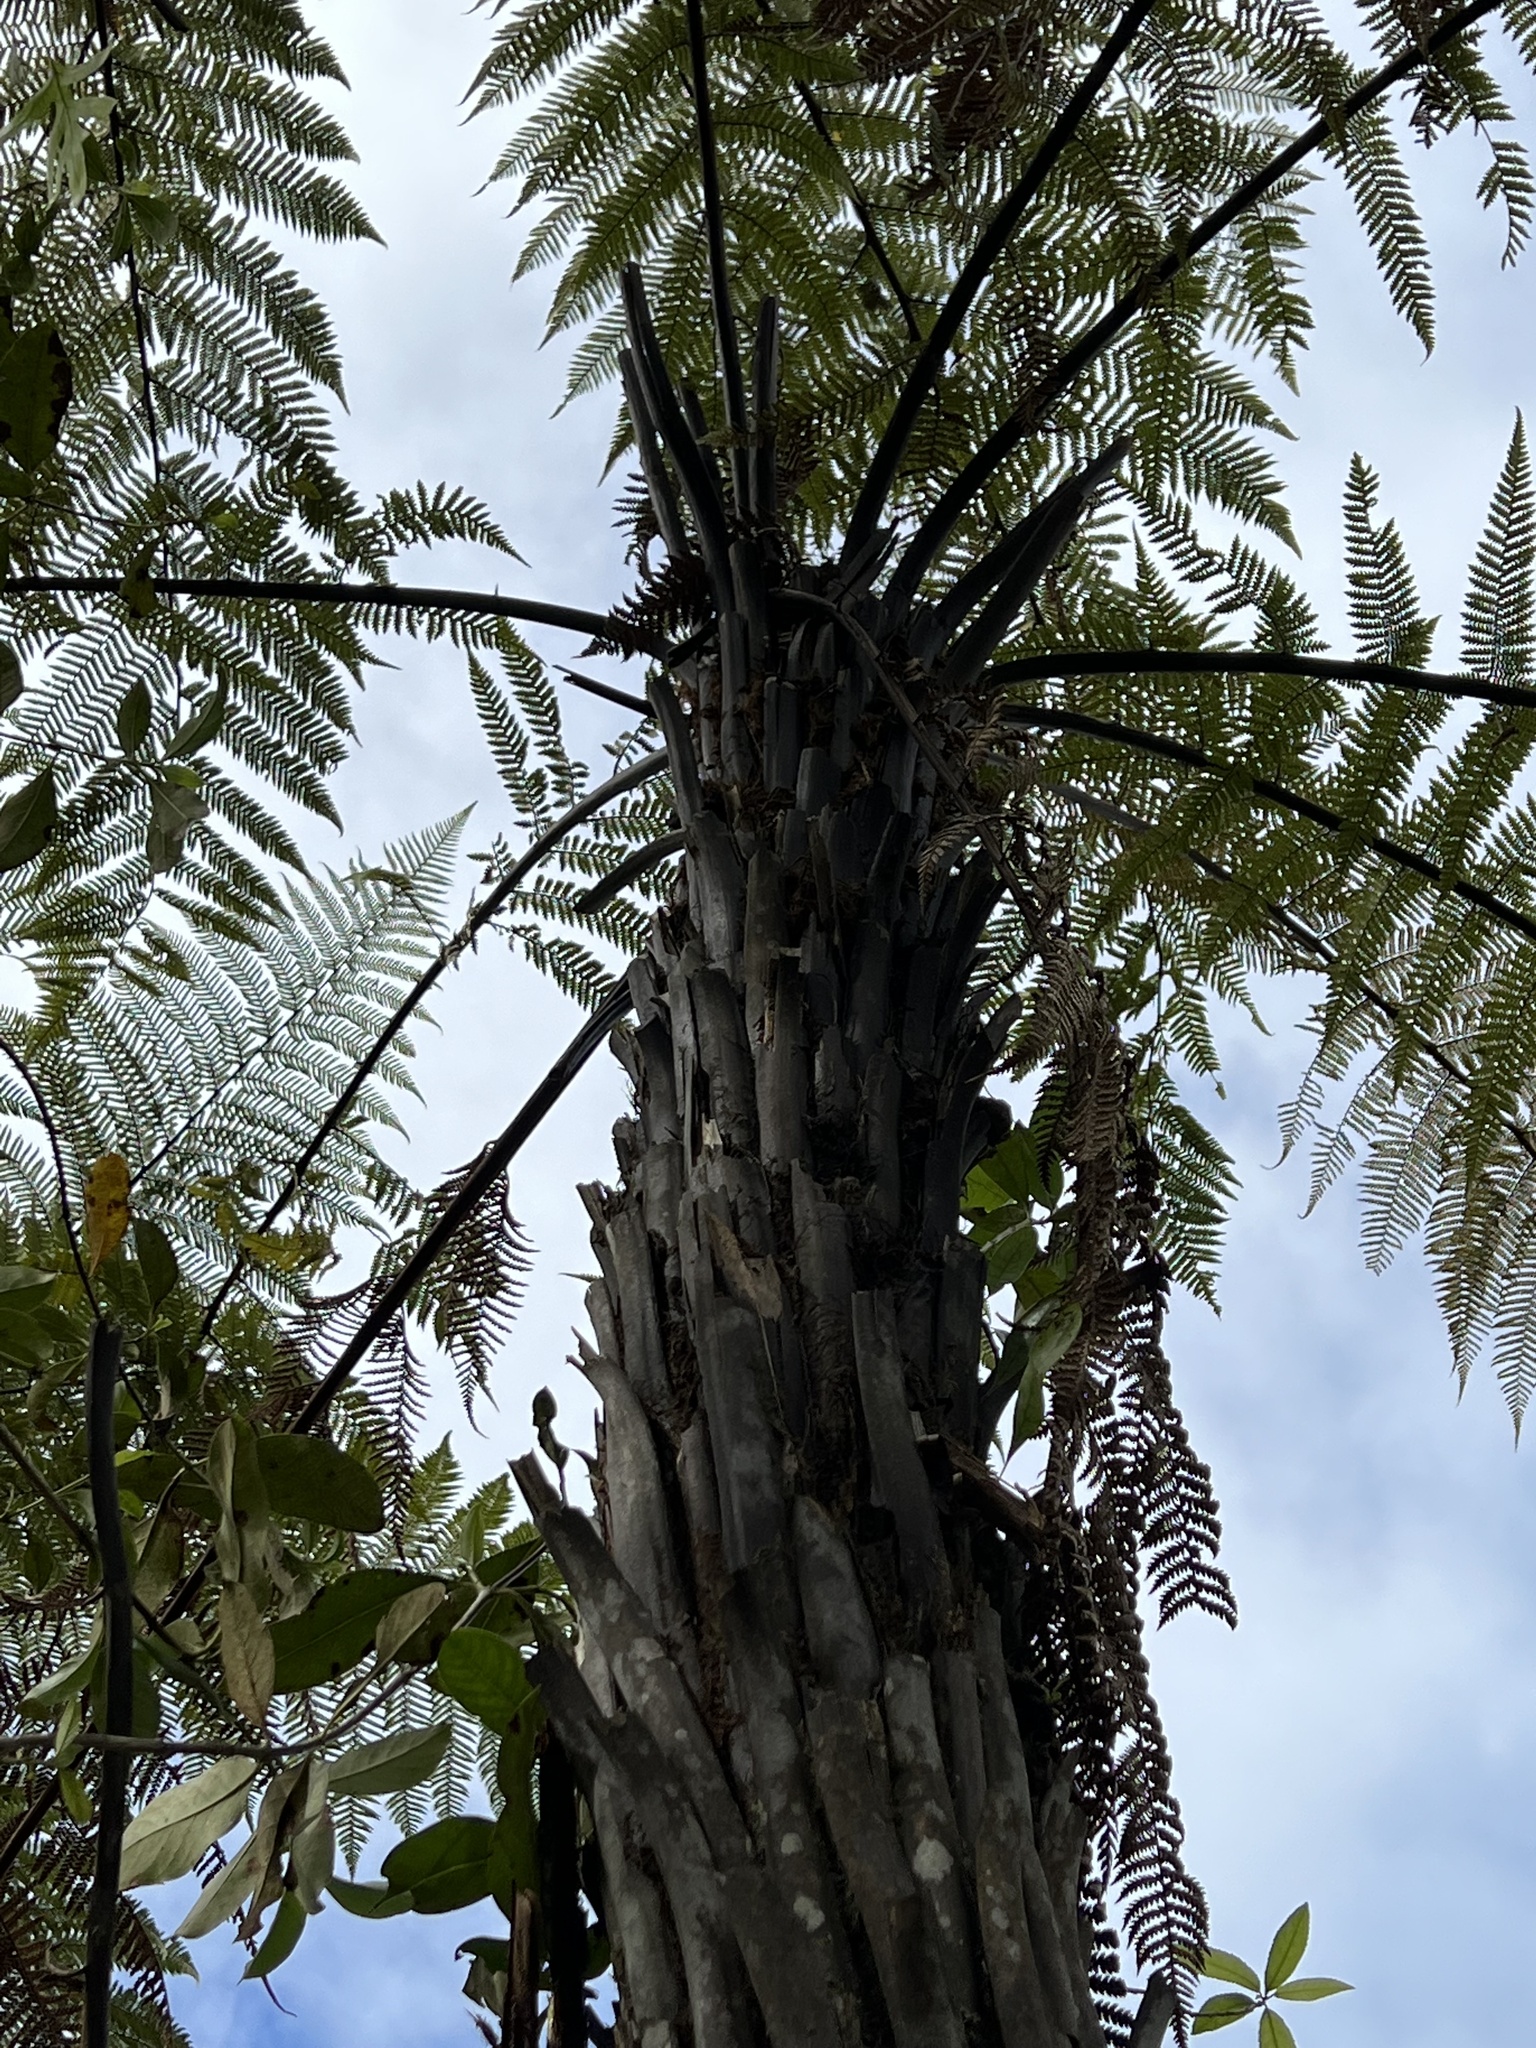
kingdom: Plantae
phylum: Tracheophyta
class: Polypodiopsida
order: Cyatheales
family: Dicksoniaceae
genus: Dicksonia
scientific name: Dicksonia squarrosa
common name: Hard treefern
